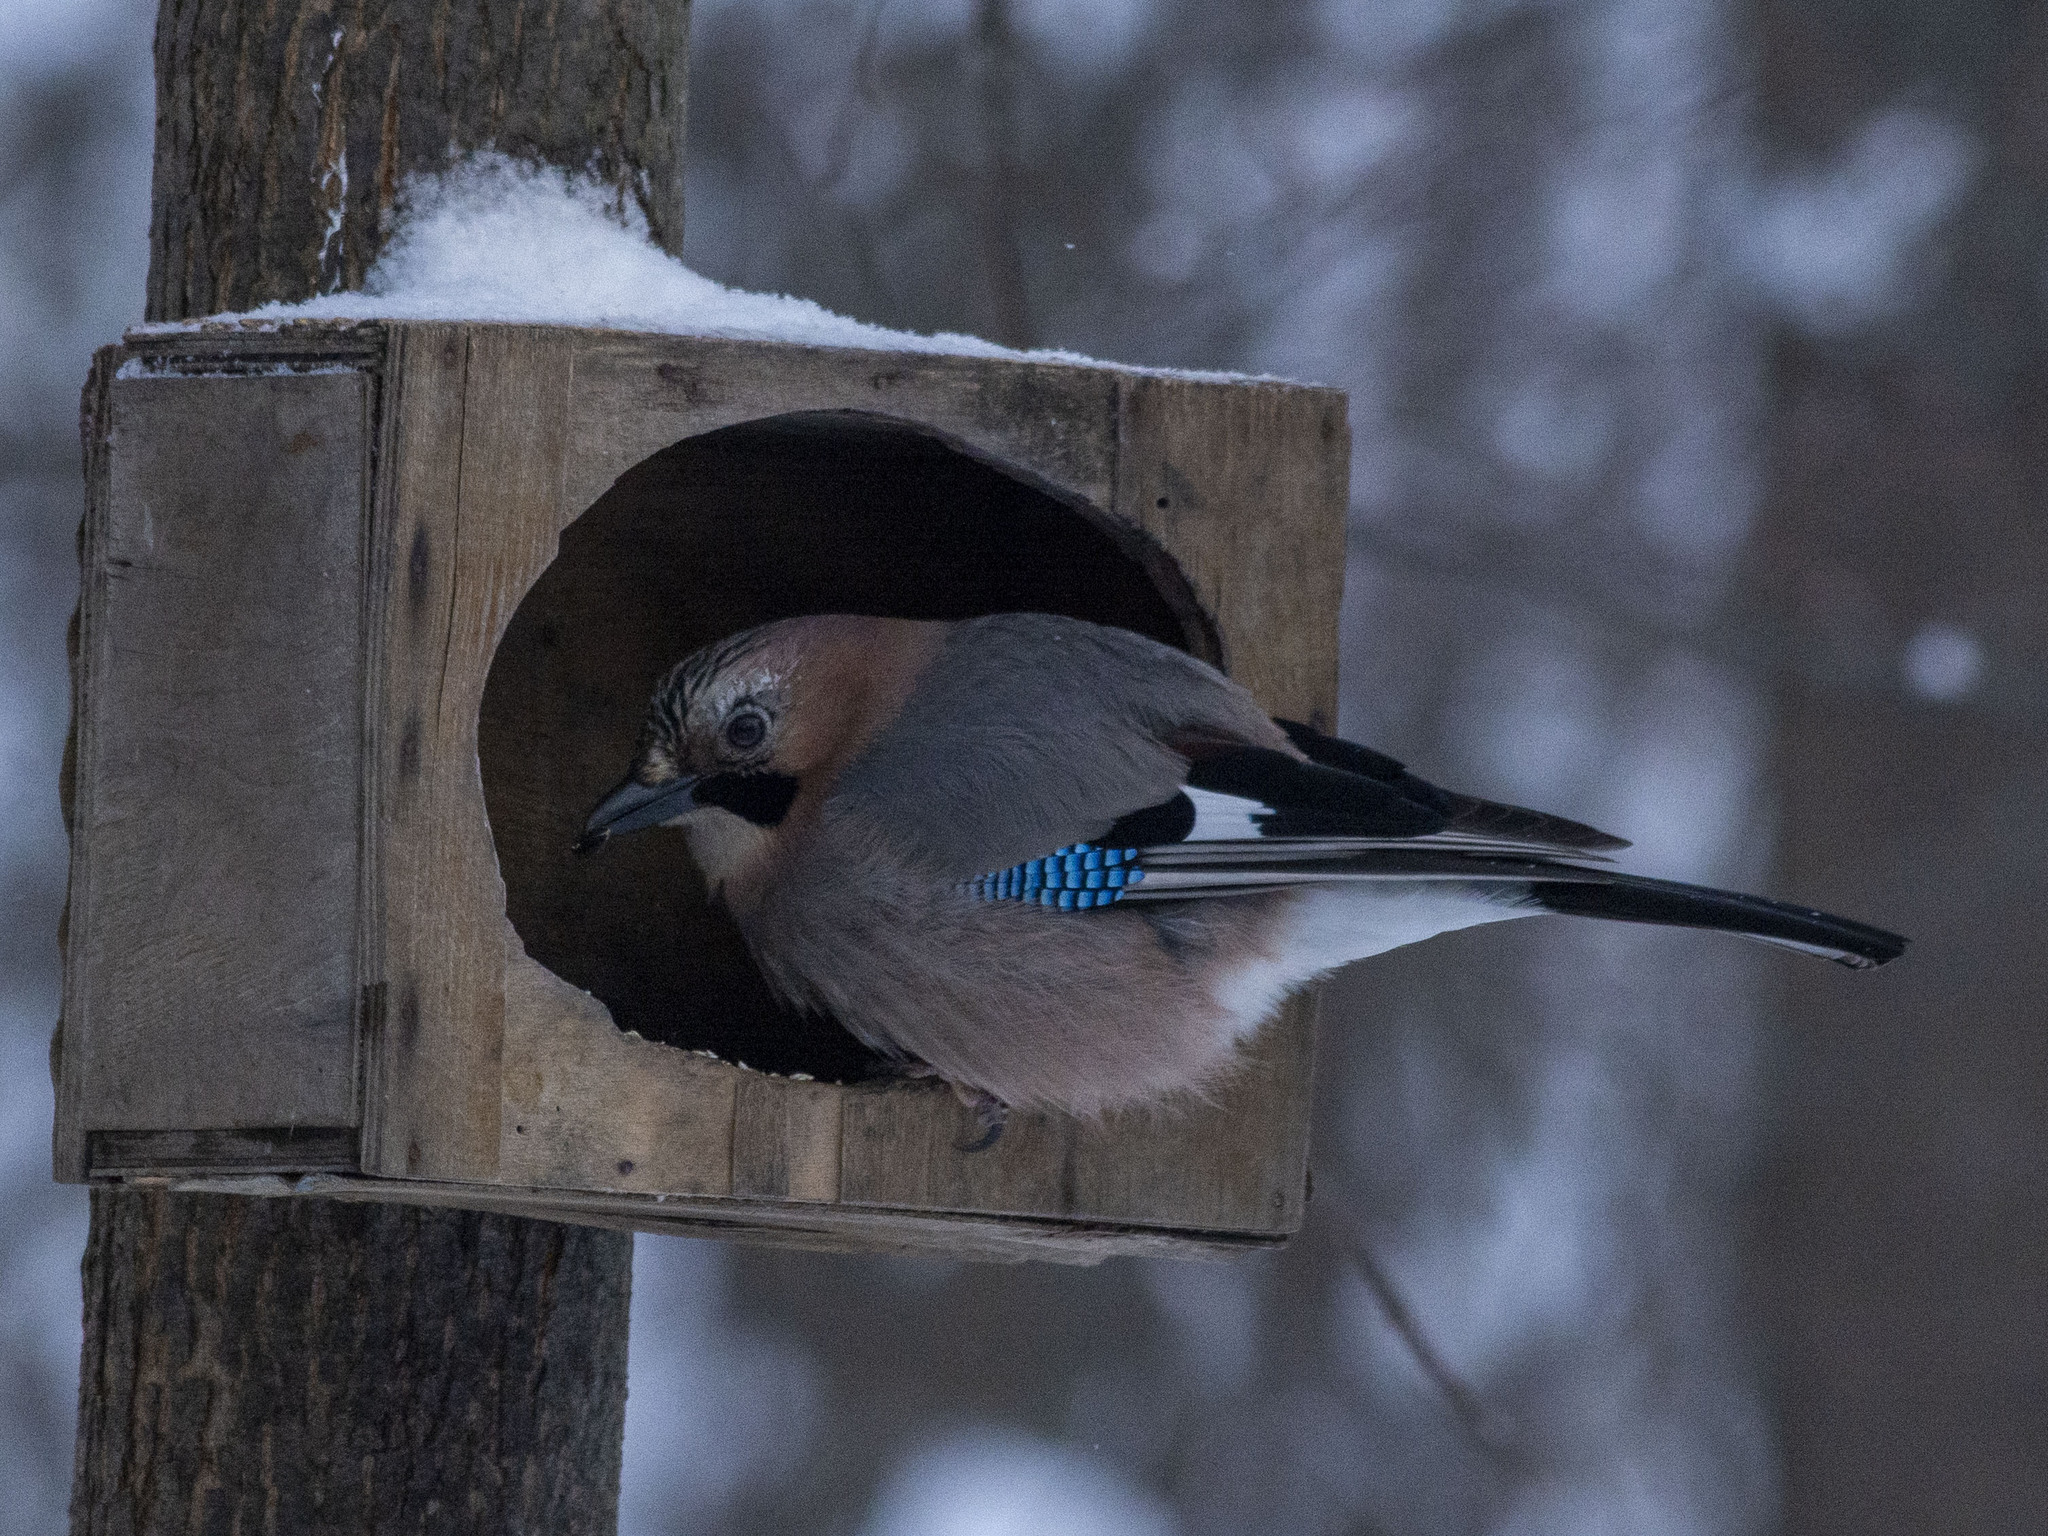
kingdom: Animalia
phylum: Chordata
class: Aves
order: Passeriformes
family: Corvidae
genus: Garrulus
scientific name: Garrulus glandarius
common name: Eurasian jay
